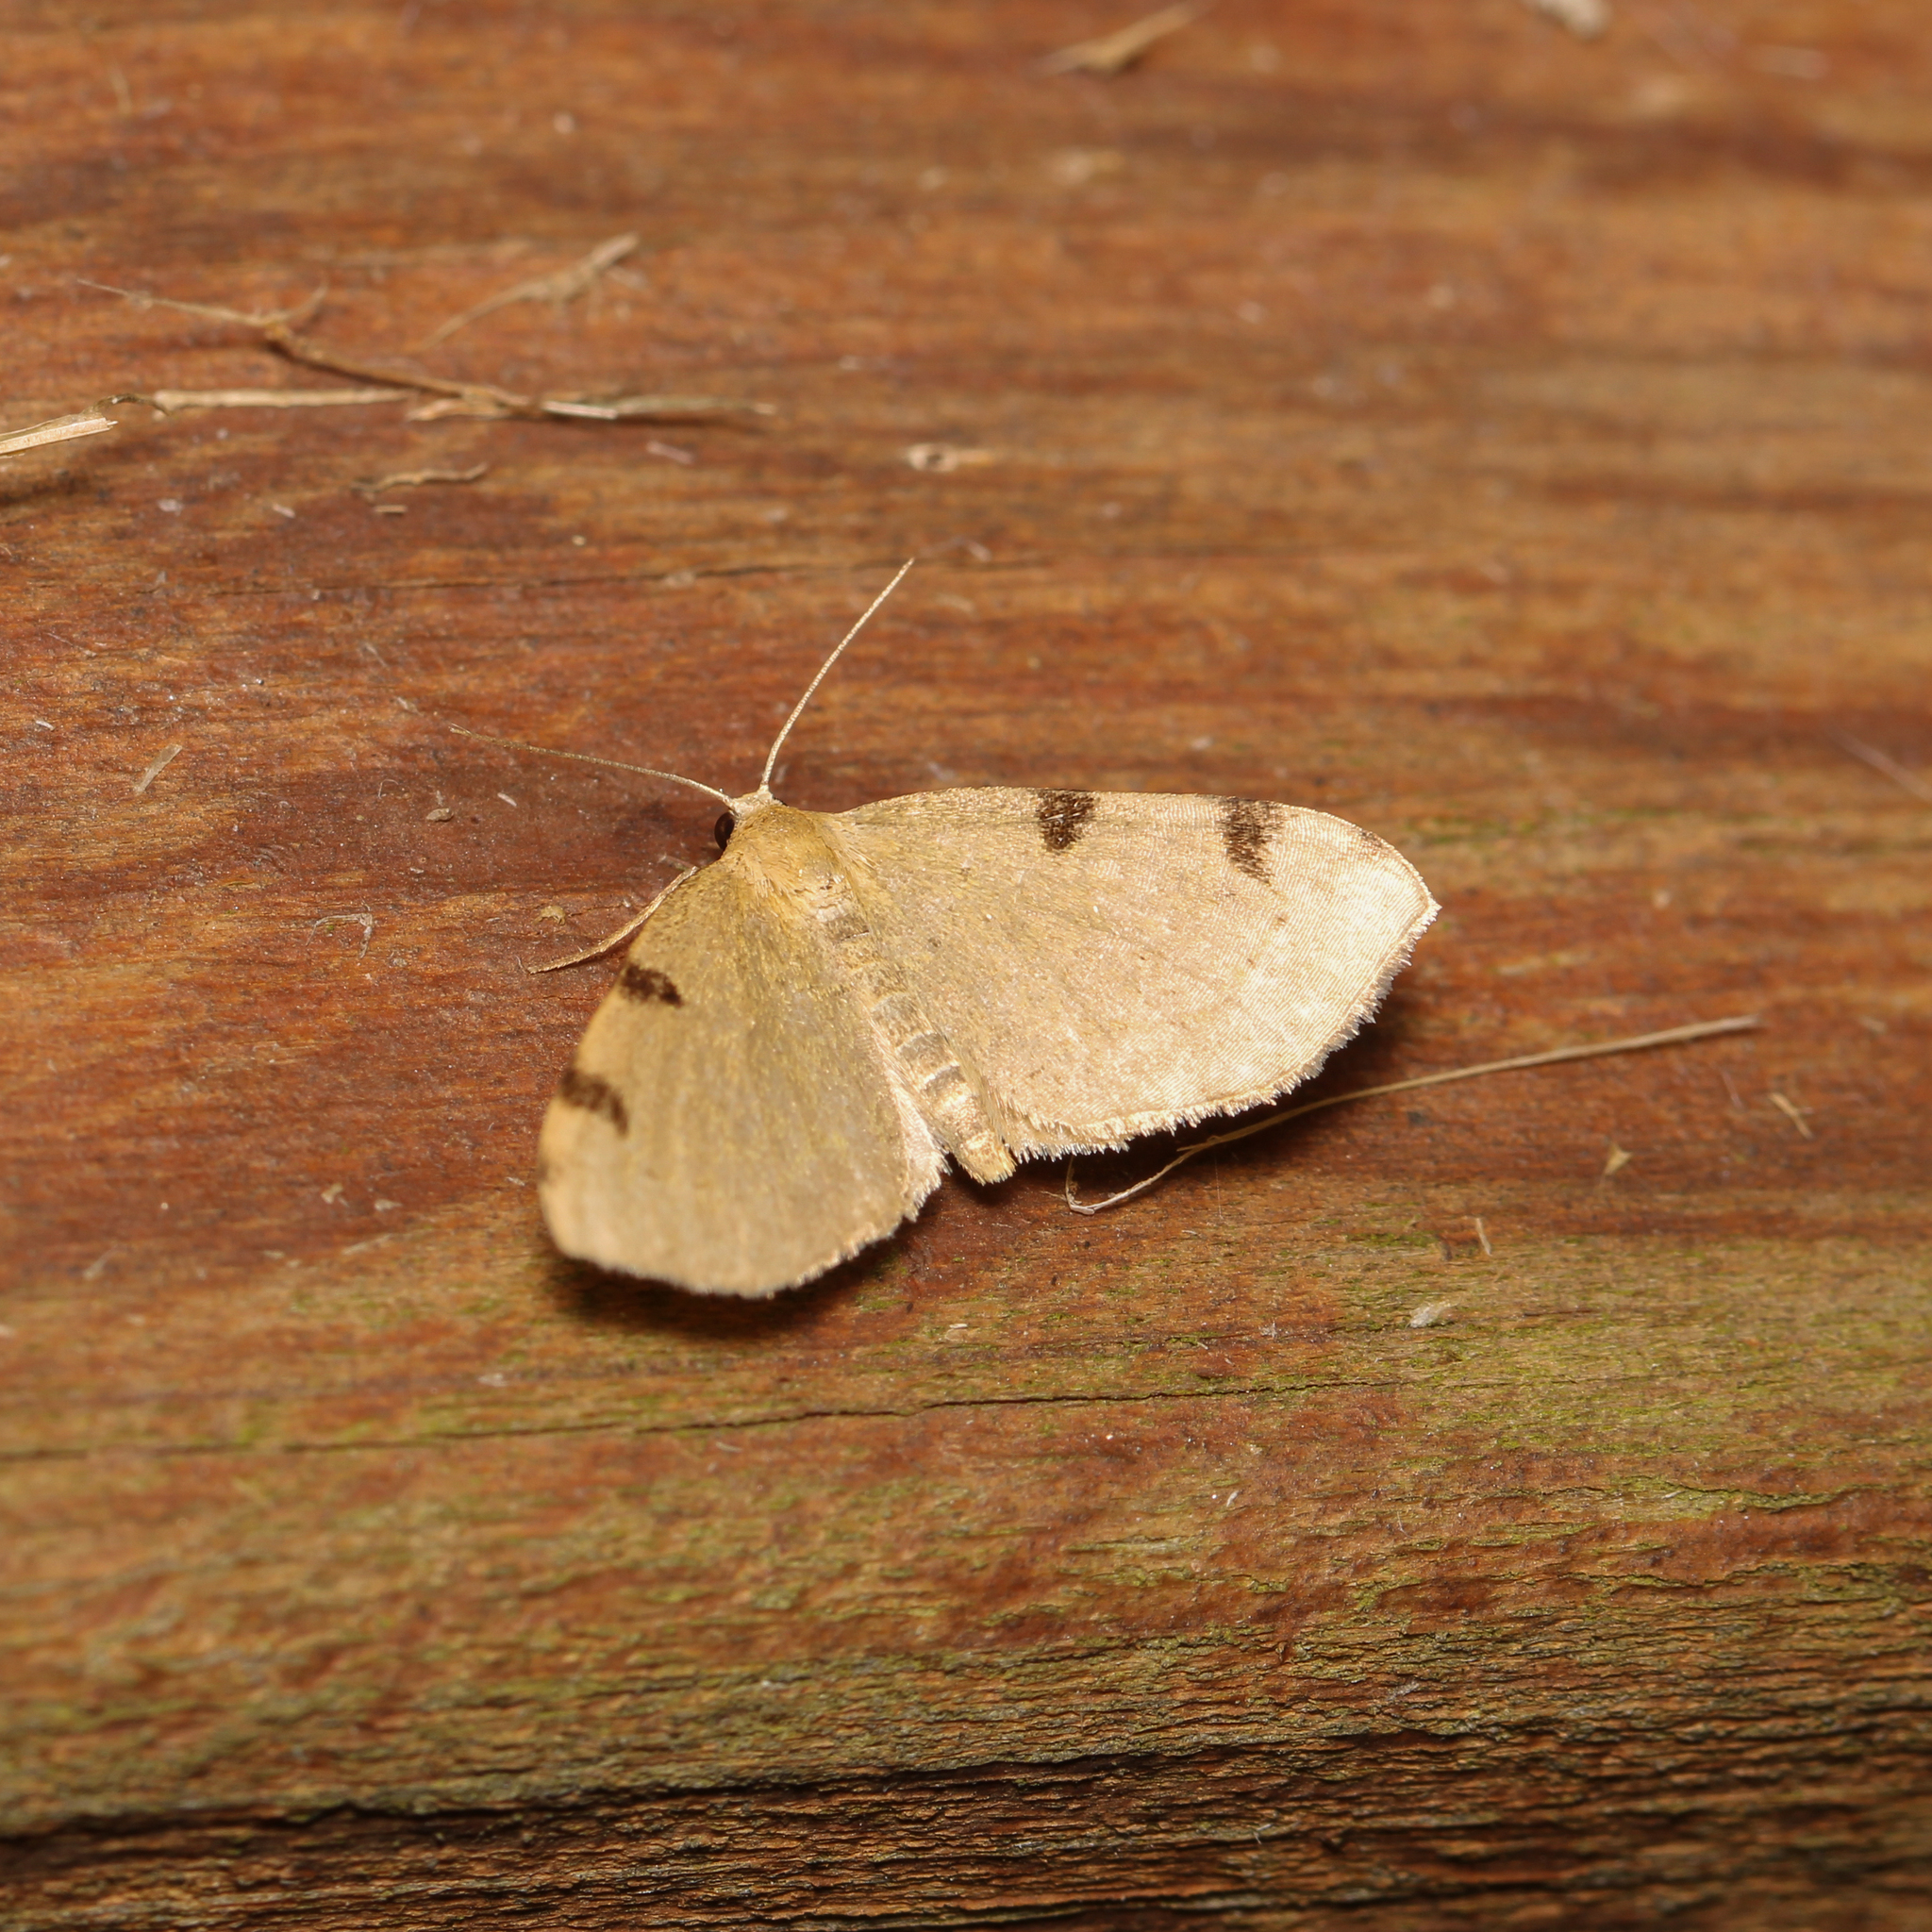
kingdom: Animalia
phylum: Arthropoda
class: Insecta
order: Lepidoptera
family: Geometridae
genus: Heterophleps
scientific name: Heterophleps triguttaria
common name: Three-spotted fillip
